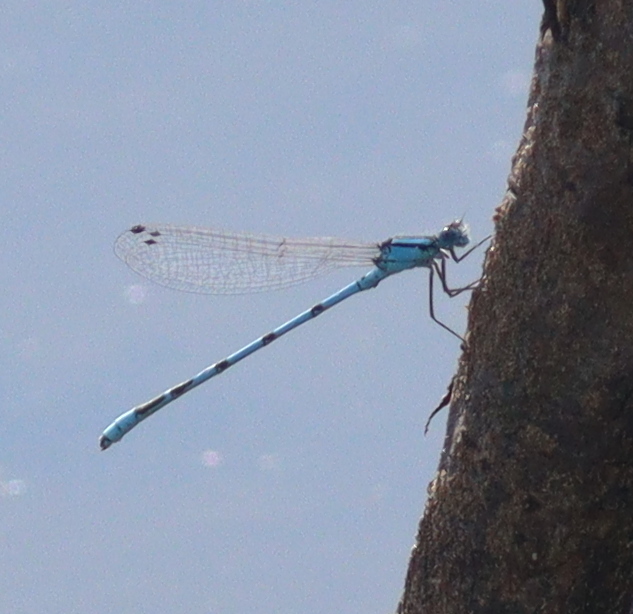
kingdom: Animalia
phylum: Arthropoda
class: Insecta
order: Odonata
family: Coenagrionidae
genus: Enallagma
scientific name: Enallagma cyathigerum
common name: Common blue damselfly
